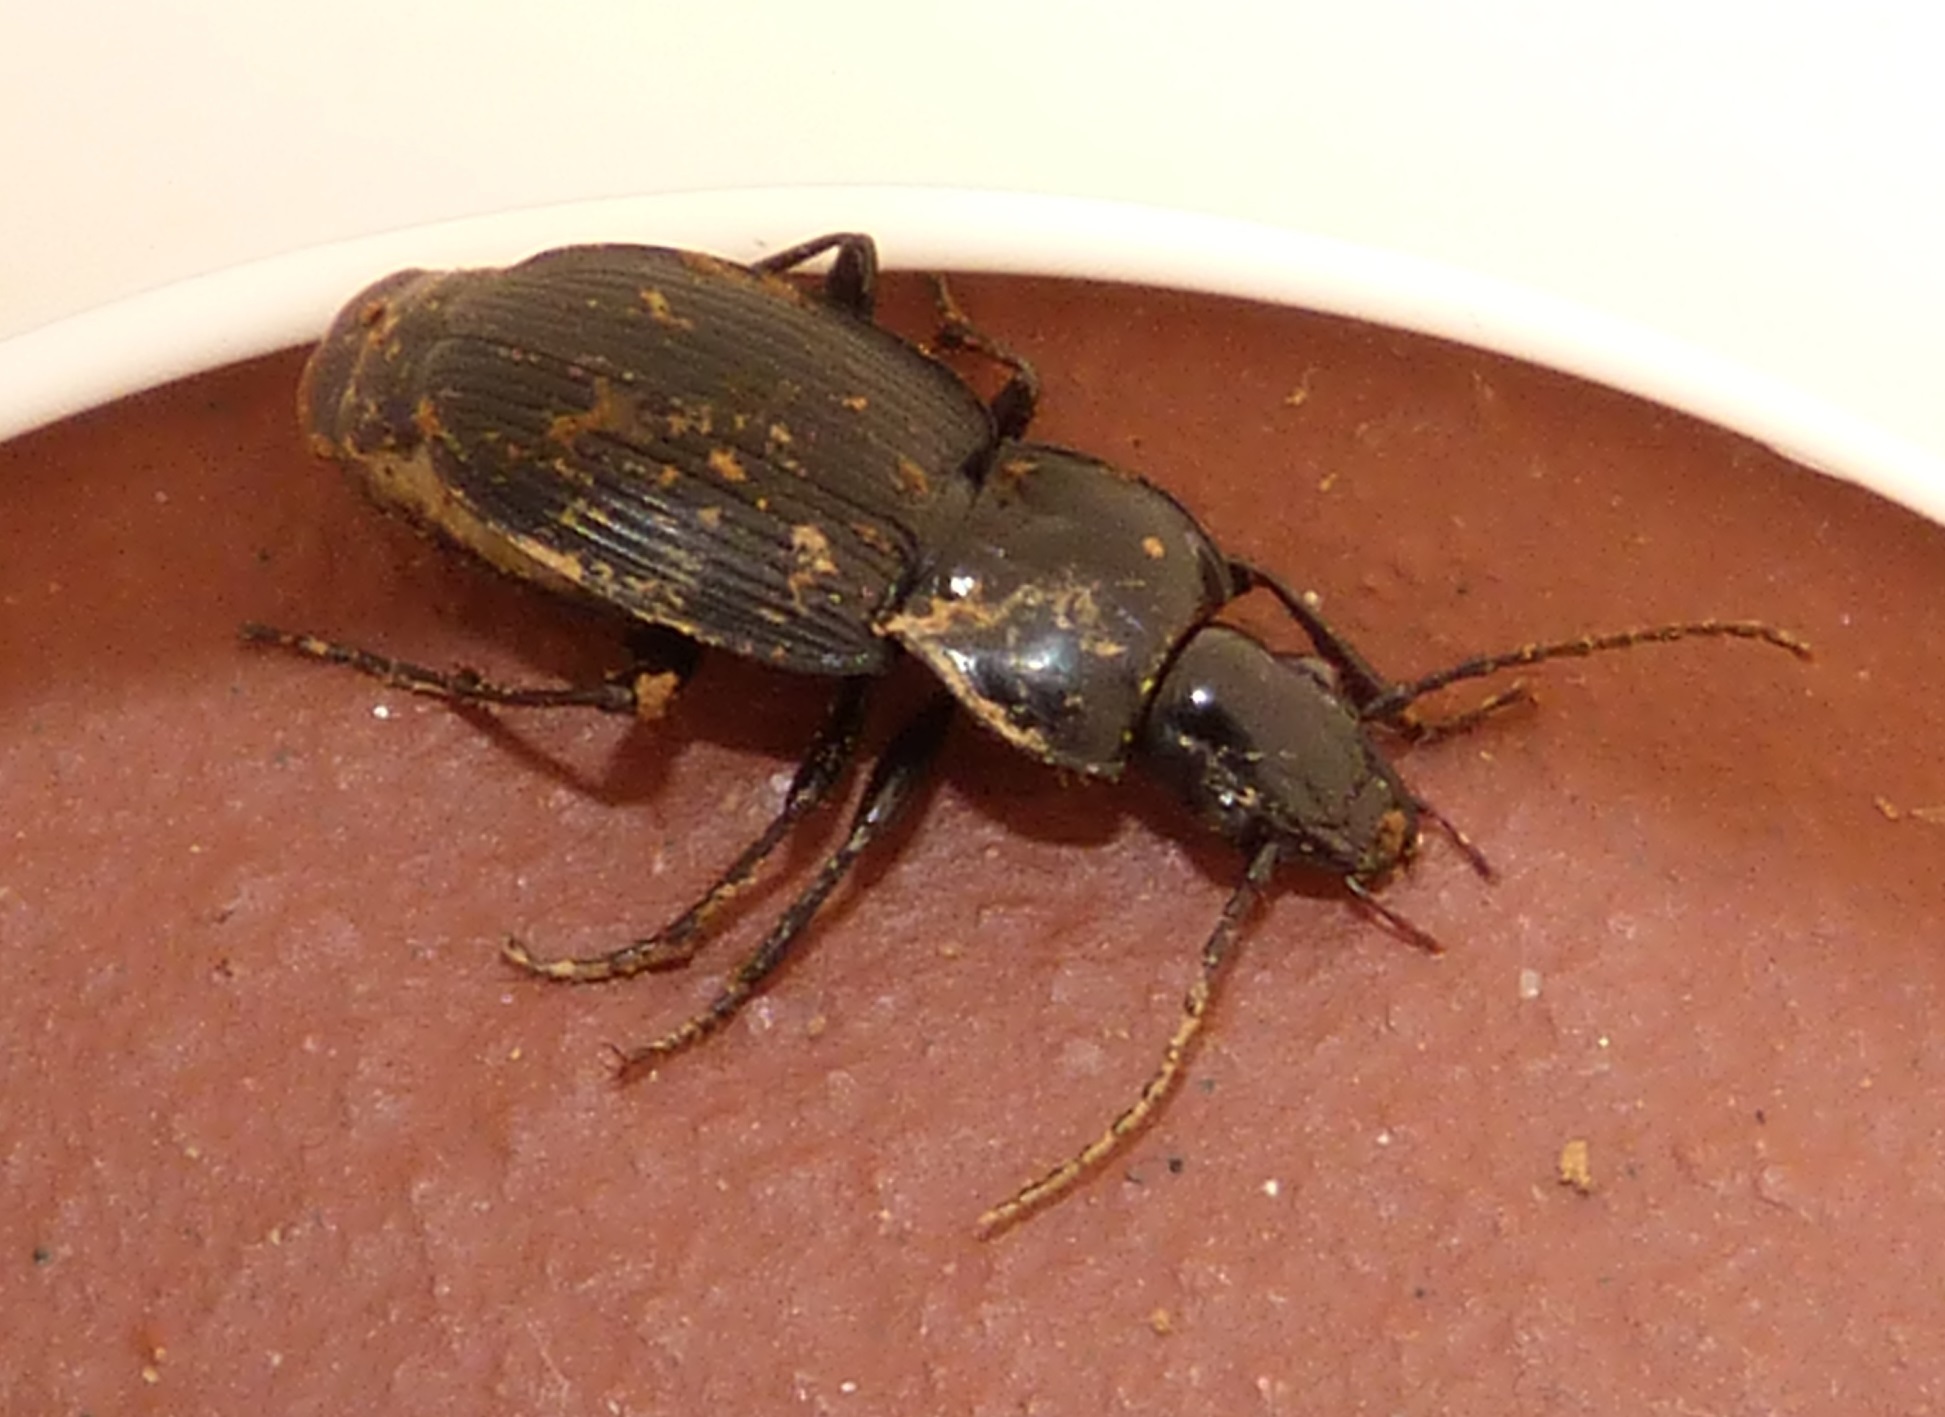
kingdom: Animalia
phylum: Arthropoda
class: Insecta
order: Coleoptera
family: Carabidae
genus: Pterostichus
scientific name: Pterostichus pedemontanus
